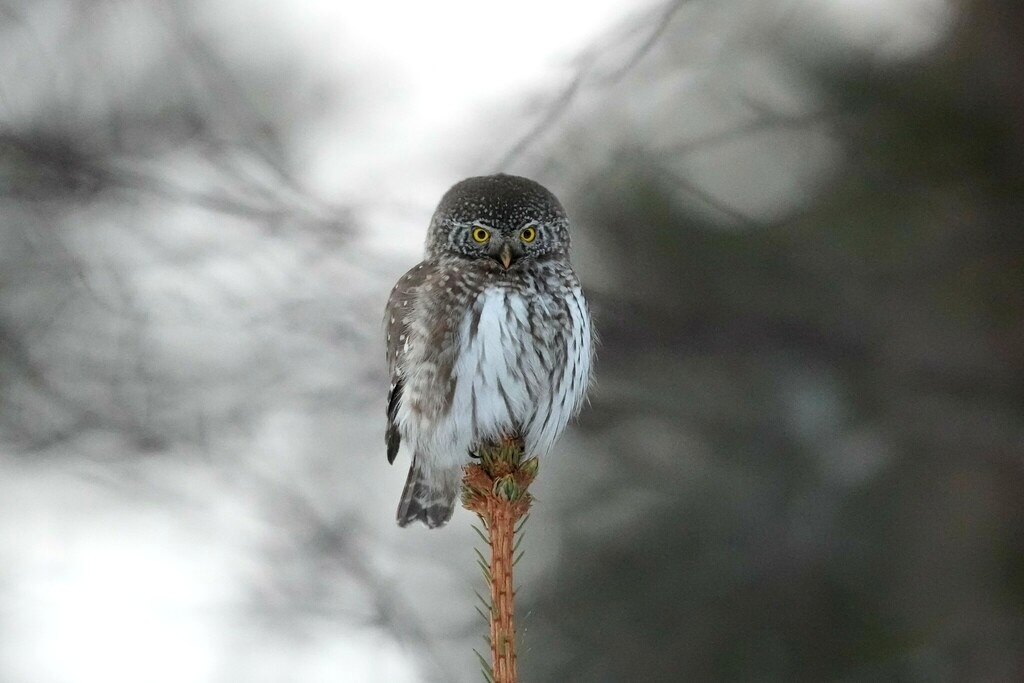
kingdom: Animalia
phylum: Chordata
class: Aves
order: Strigiformes
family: Strigidae
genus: Glaucidium
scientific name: Glaucidium passerinum
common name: Eurasian pygmy owl
